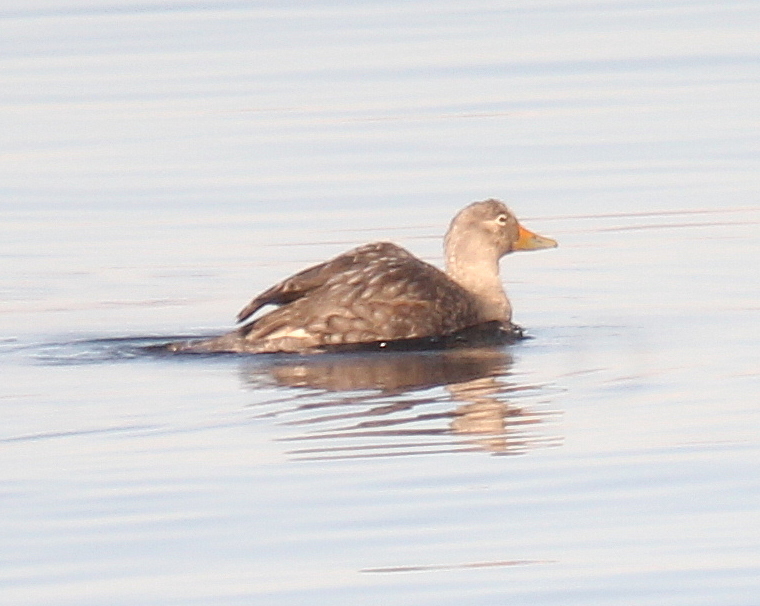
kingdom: Animalia
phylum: Chordata
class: Aves
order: Anseriformes
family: Anatidae
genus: Tachyeres
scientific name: Tachyeres patachonicus
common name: Flying steamer duck
